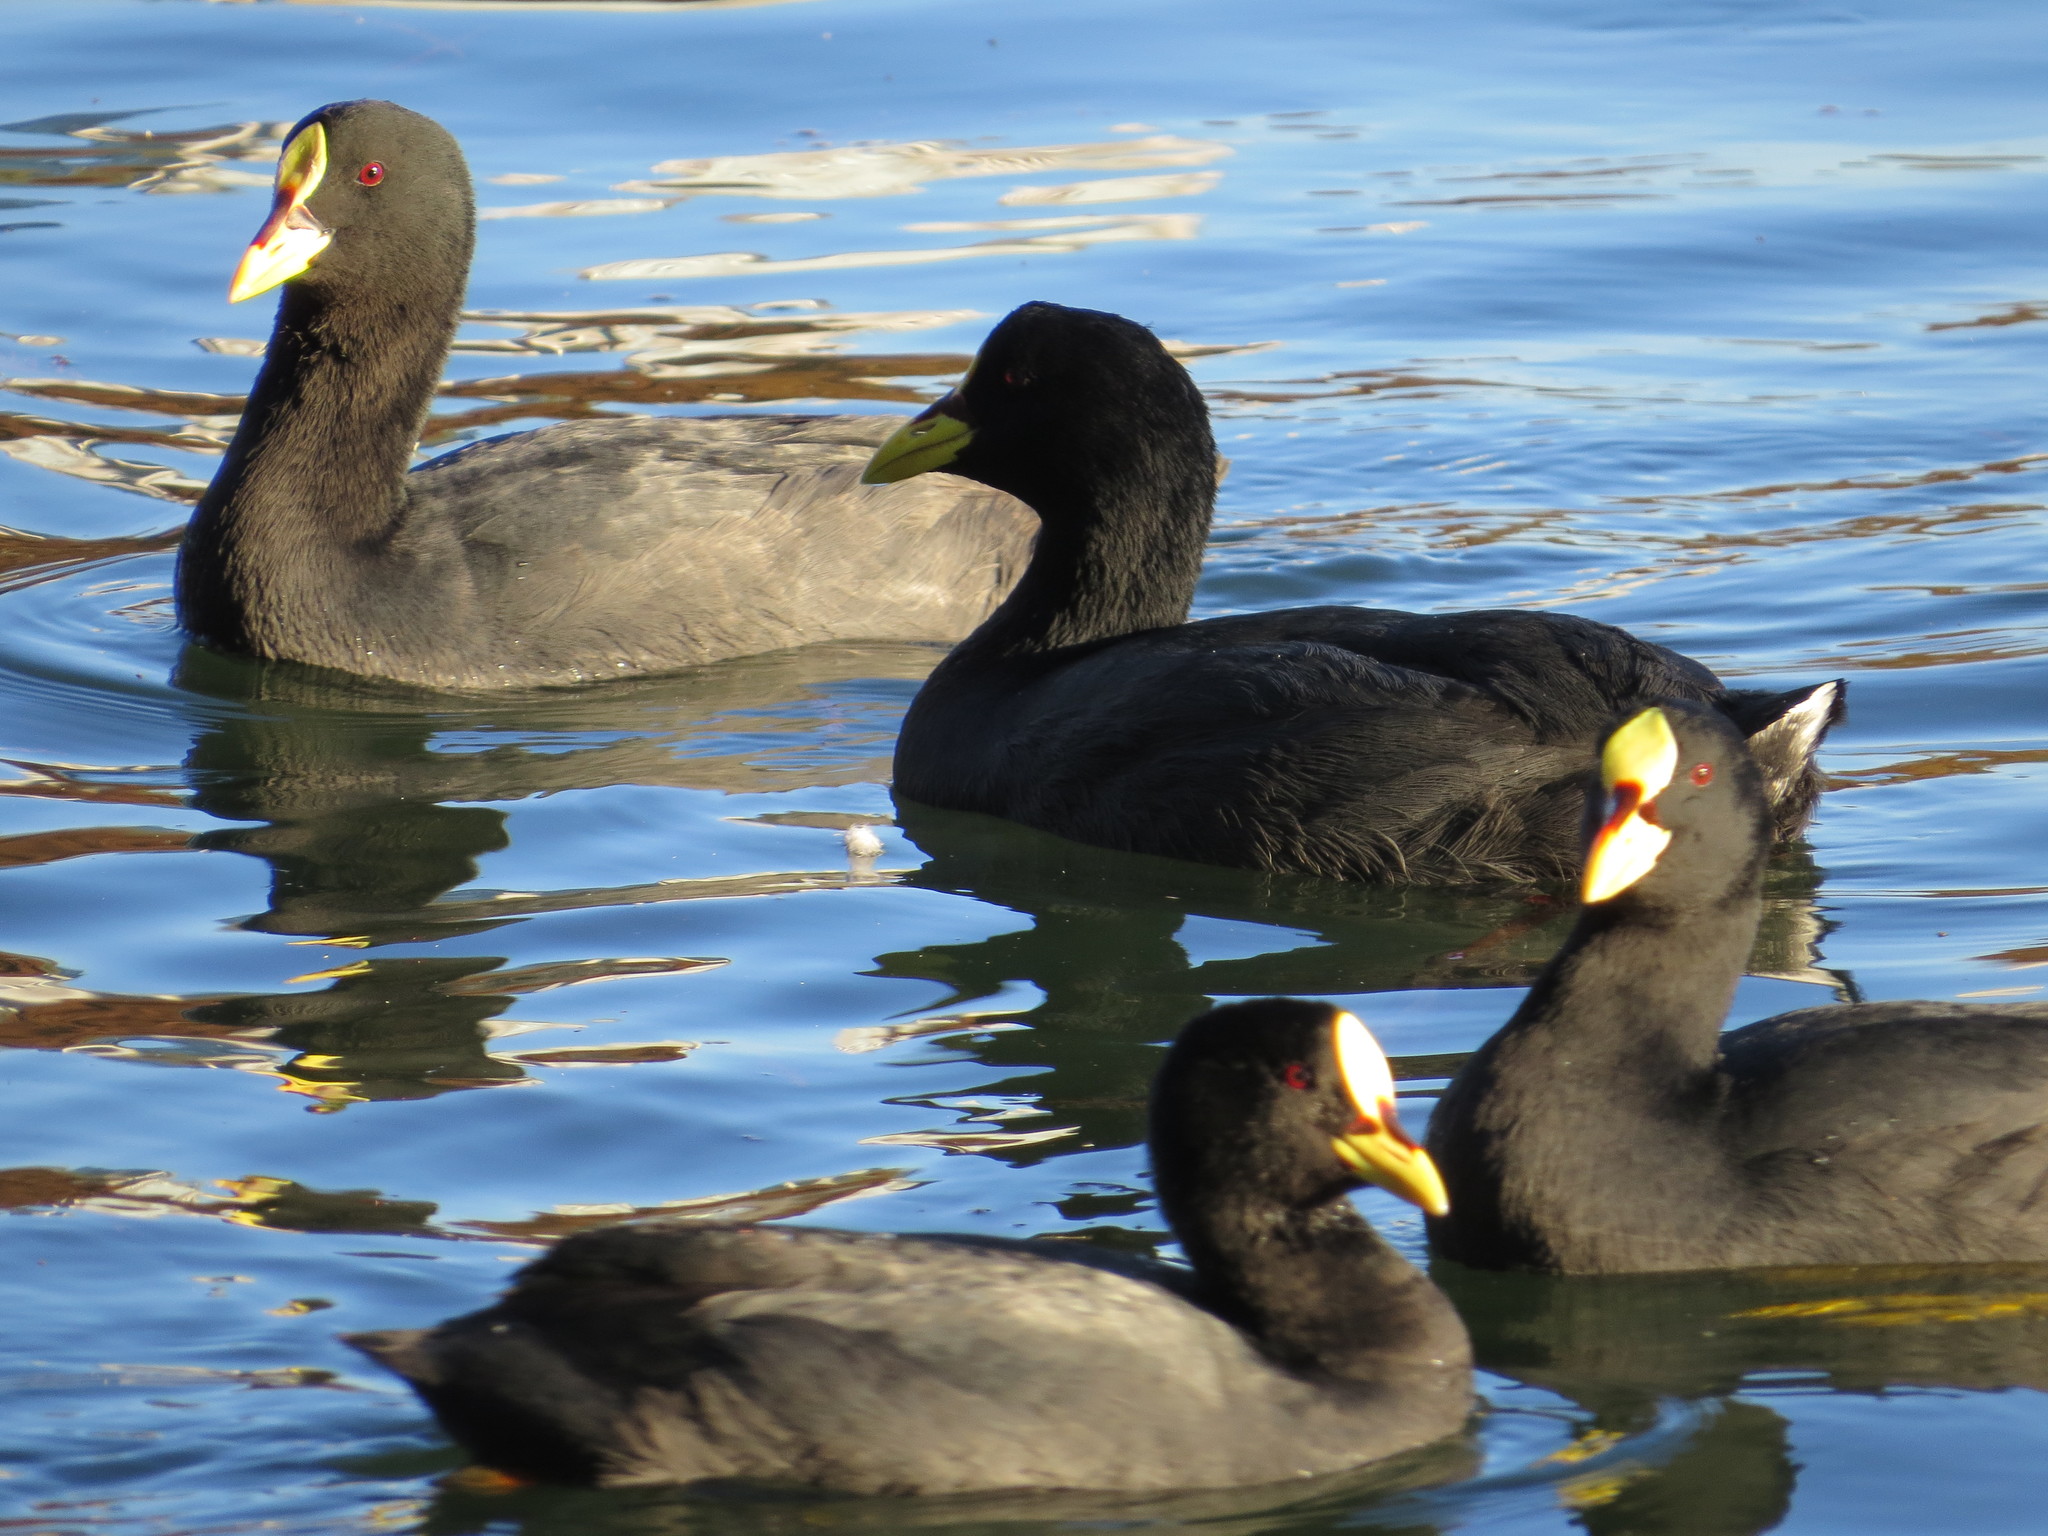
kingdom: Animalia
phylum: Chordata
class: Aves
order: Gruiformes
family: Rallidae
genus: Fulica
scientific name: Fulica armillata
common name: Red-gartered coot
